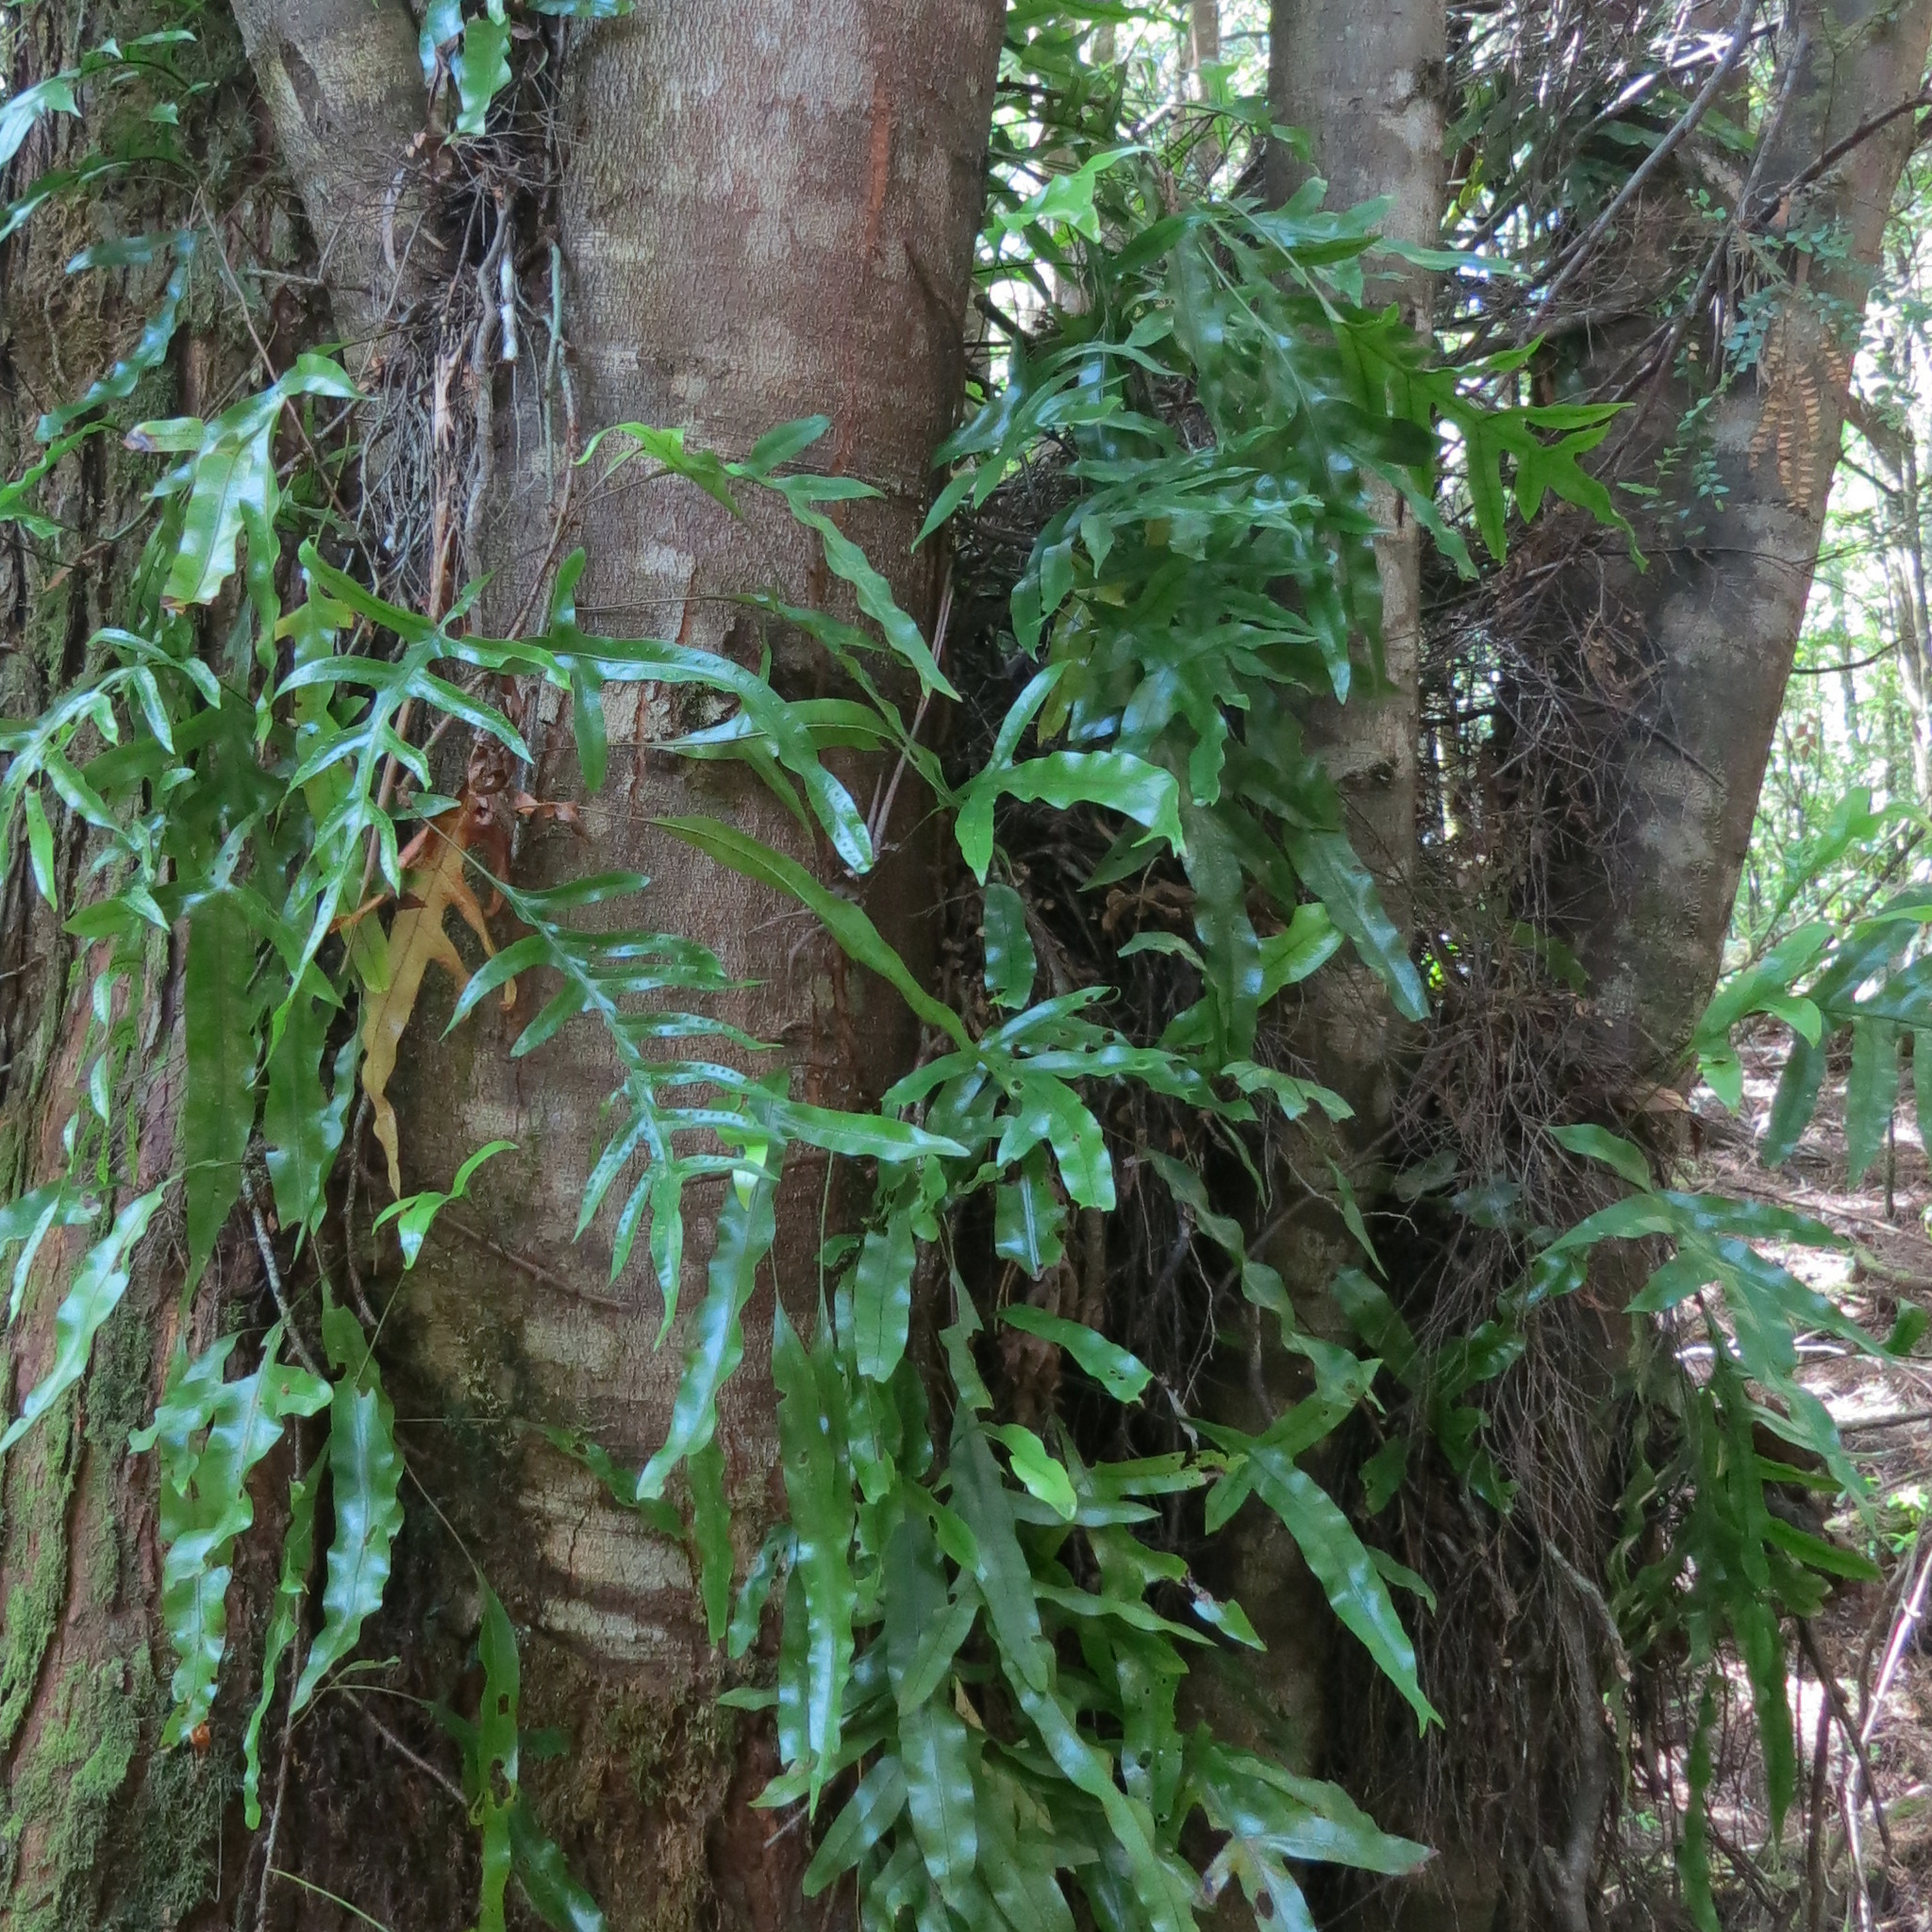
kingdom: Plantae
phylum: Tracheophyta
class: Polypodiopsida
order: Polypodiales
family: Polypodiaceae
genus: Lecanopteris
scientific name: Lecanopteris pustulata
